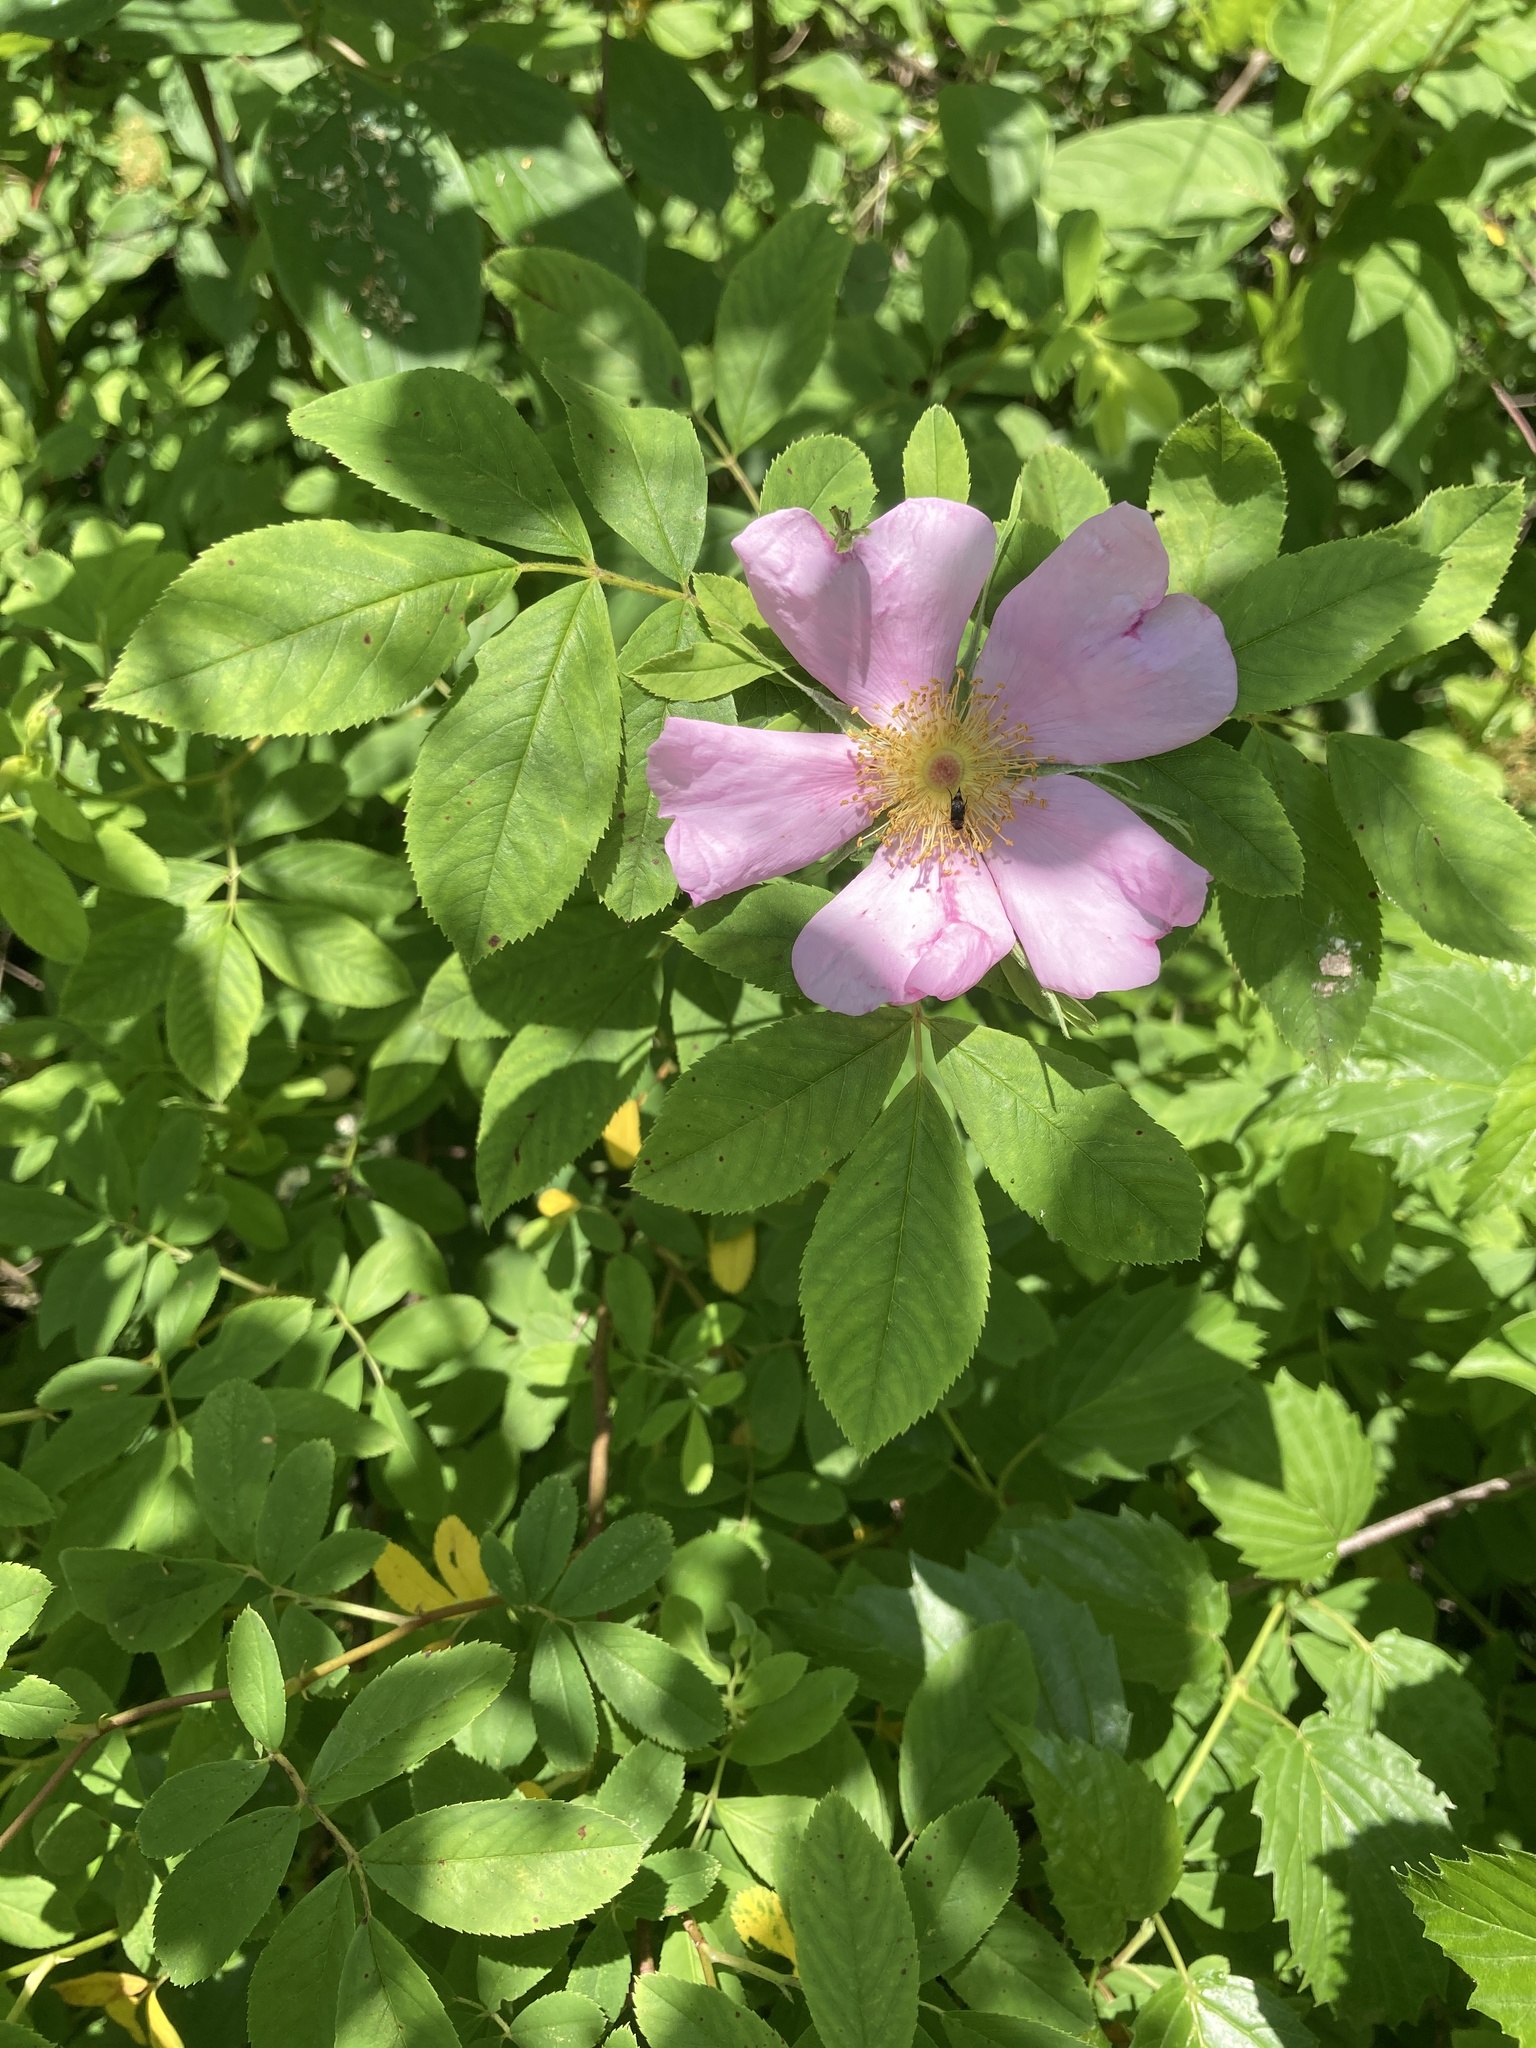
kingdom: Plantae
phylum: Tracheophyta
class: Magnoliopsida
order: Rosales
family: Rosaceae
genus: Rosa
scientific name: Rosa palustris
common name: Swamp rose
